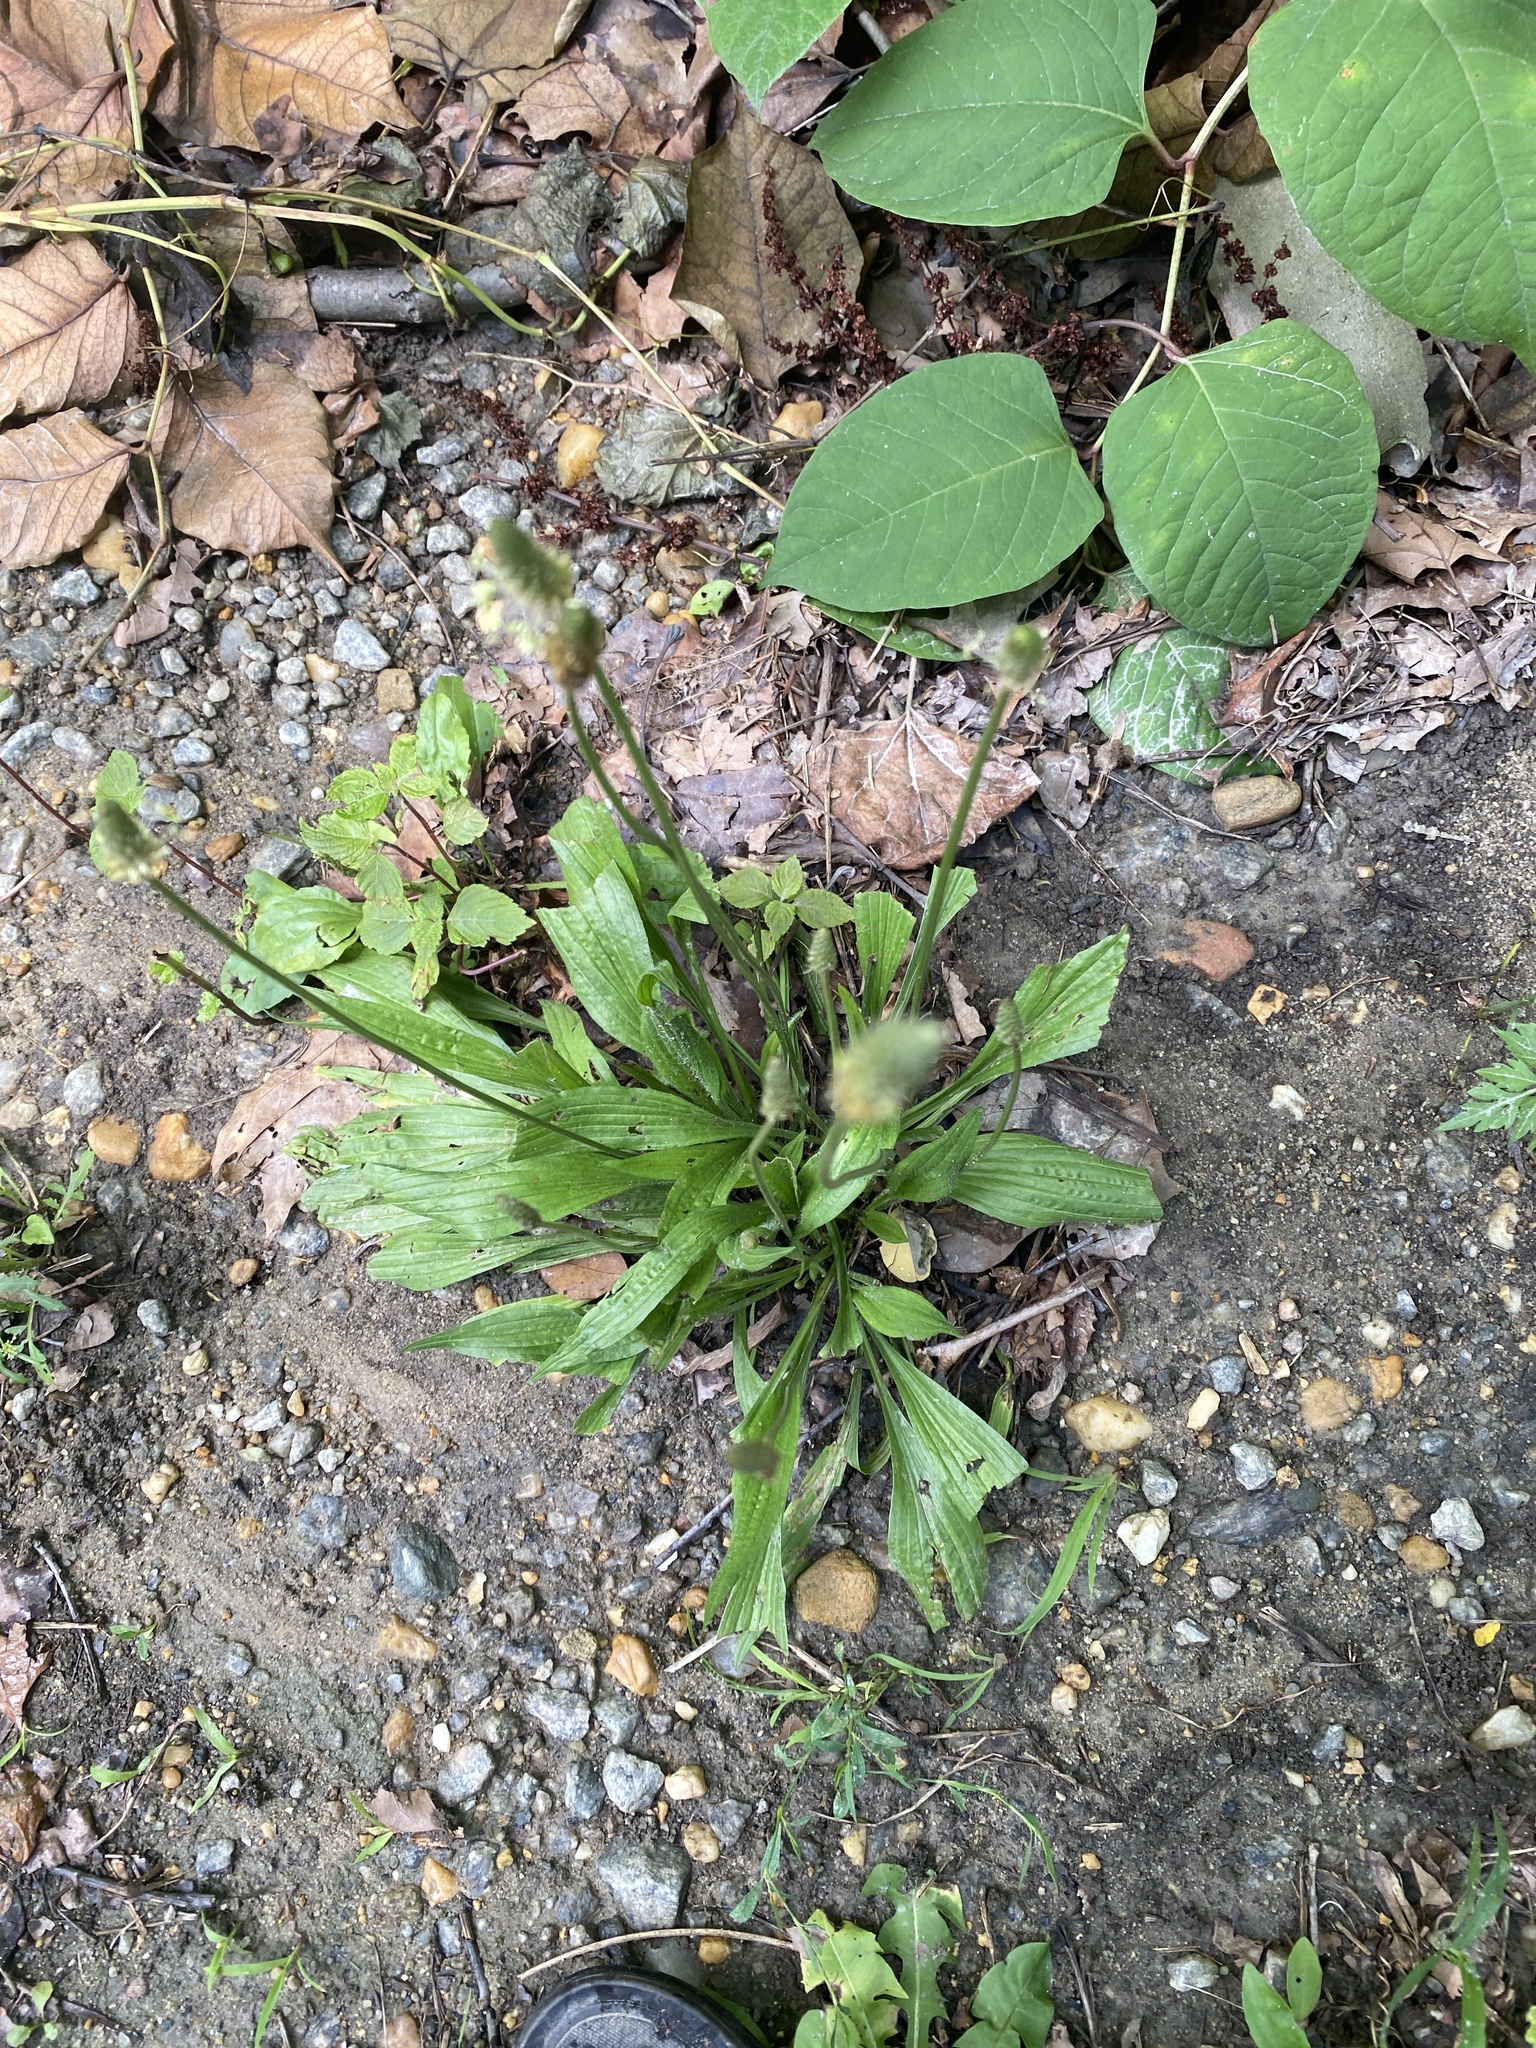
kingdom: Plantae
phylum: Tracheophyta
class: Magnoliopsida
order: Lamiales
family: Plantaginaceae
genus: Plantago
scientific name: Plantago lanceolata
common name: Ribwort plantain
